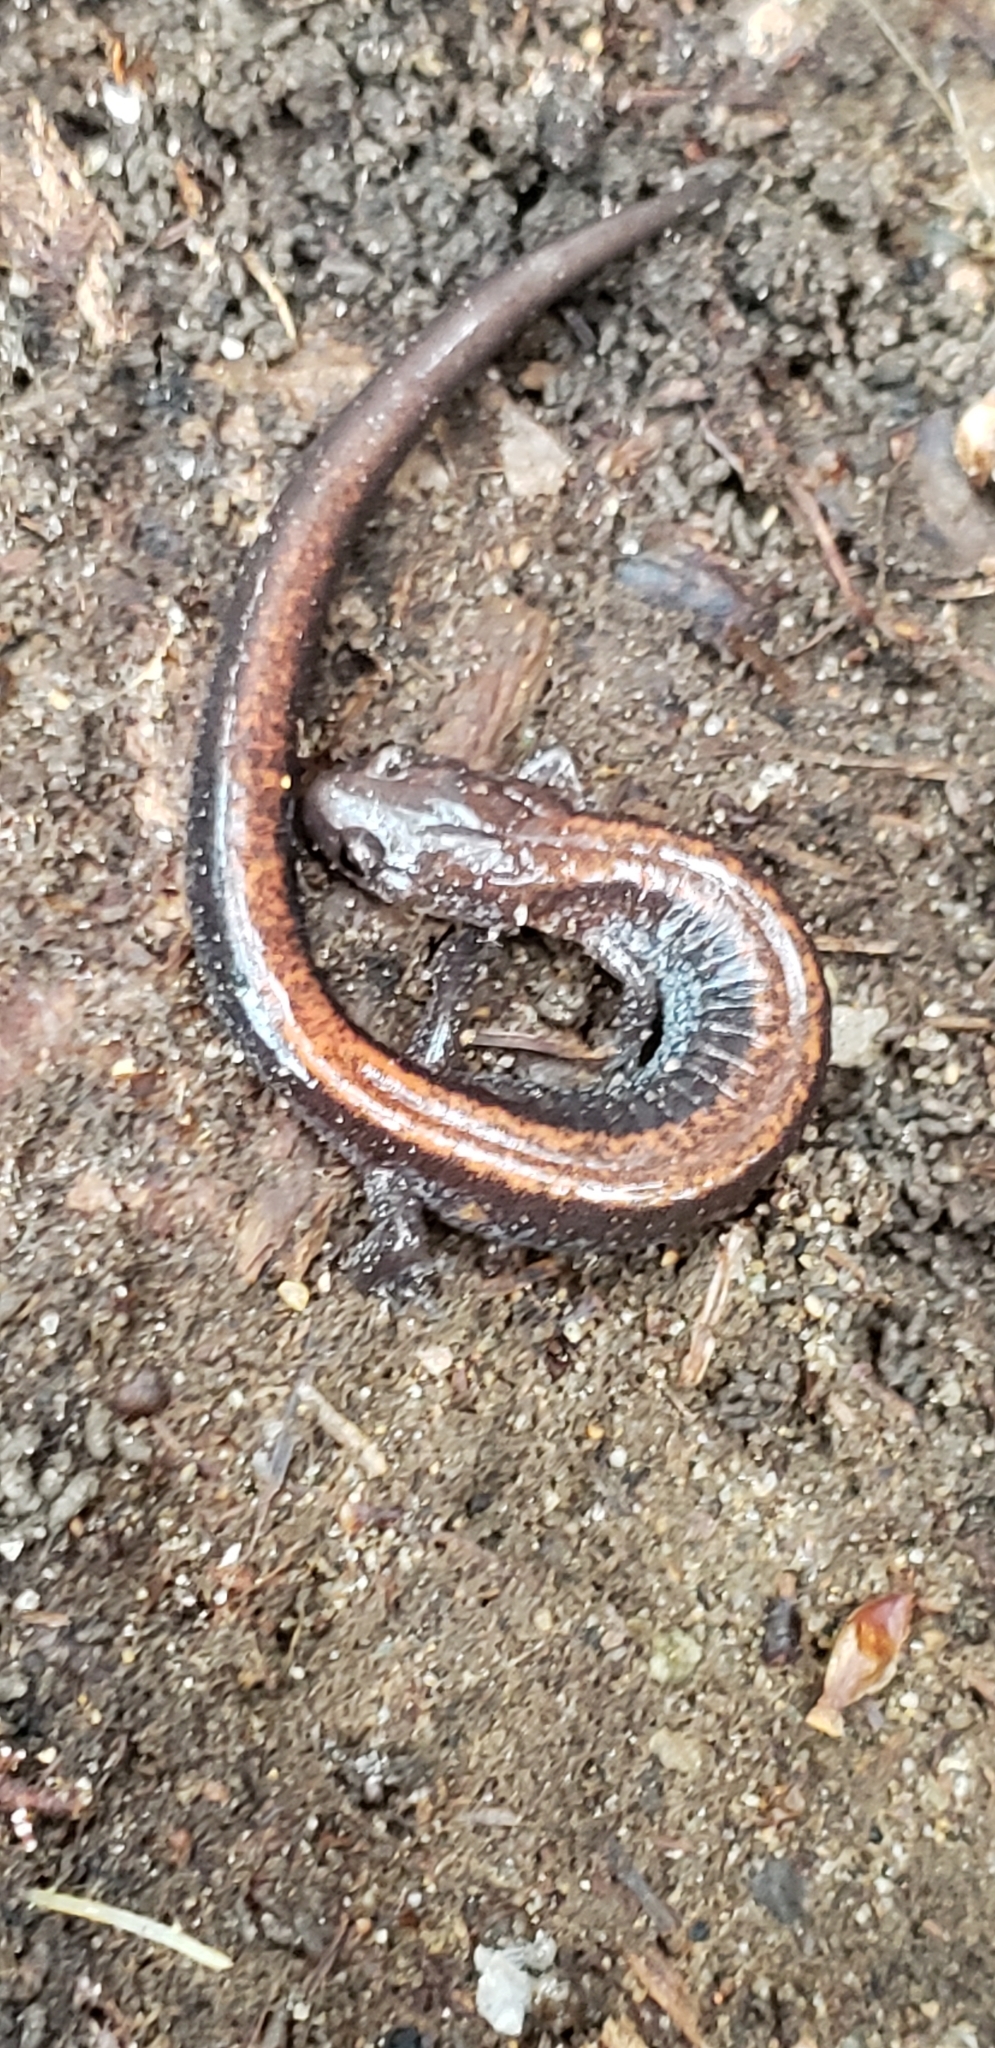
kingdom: Animalia
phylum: Chordata
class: Amphibia
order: Caudata
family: Plethodontidae
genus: Plethodon
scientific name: Plethodon cinereus
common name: Redback salamander
